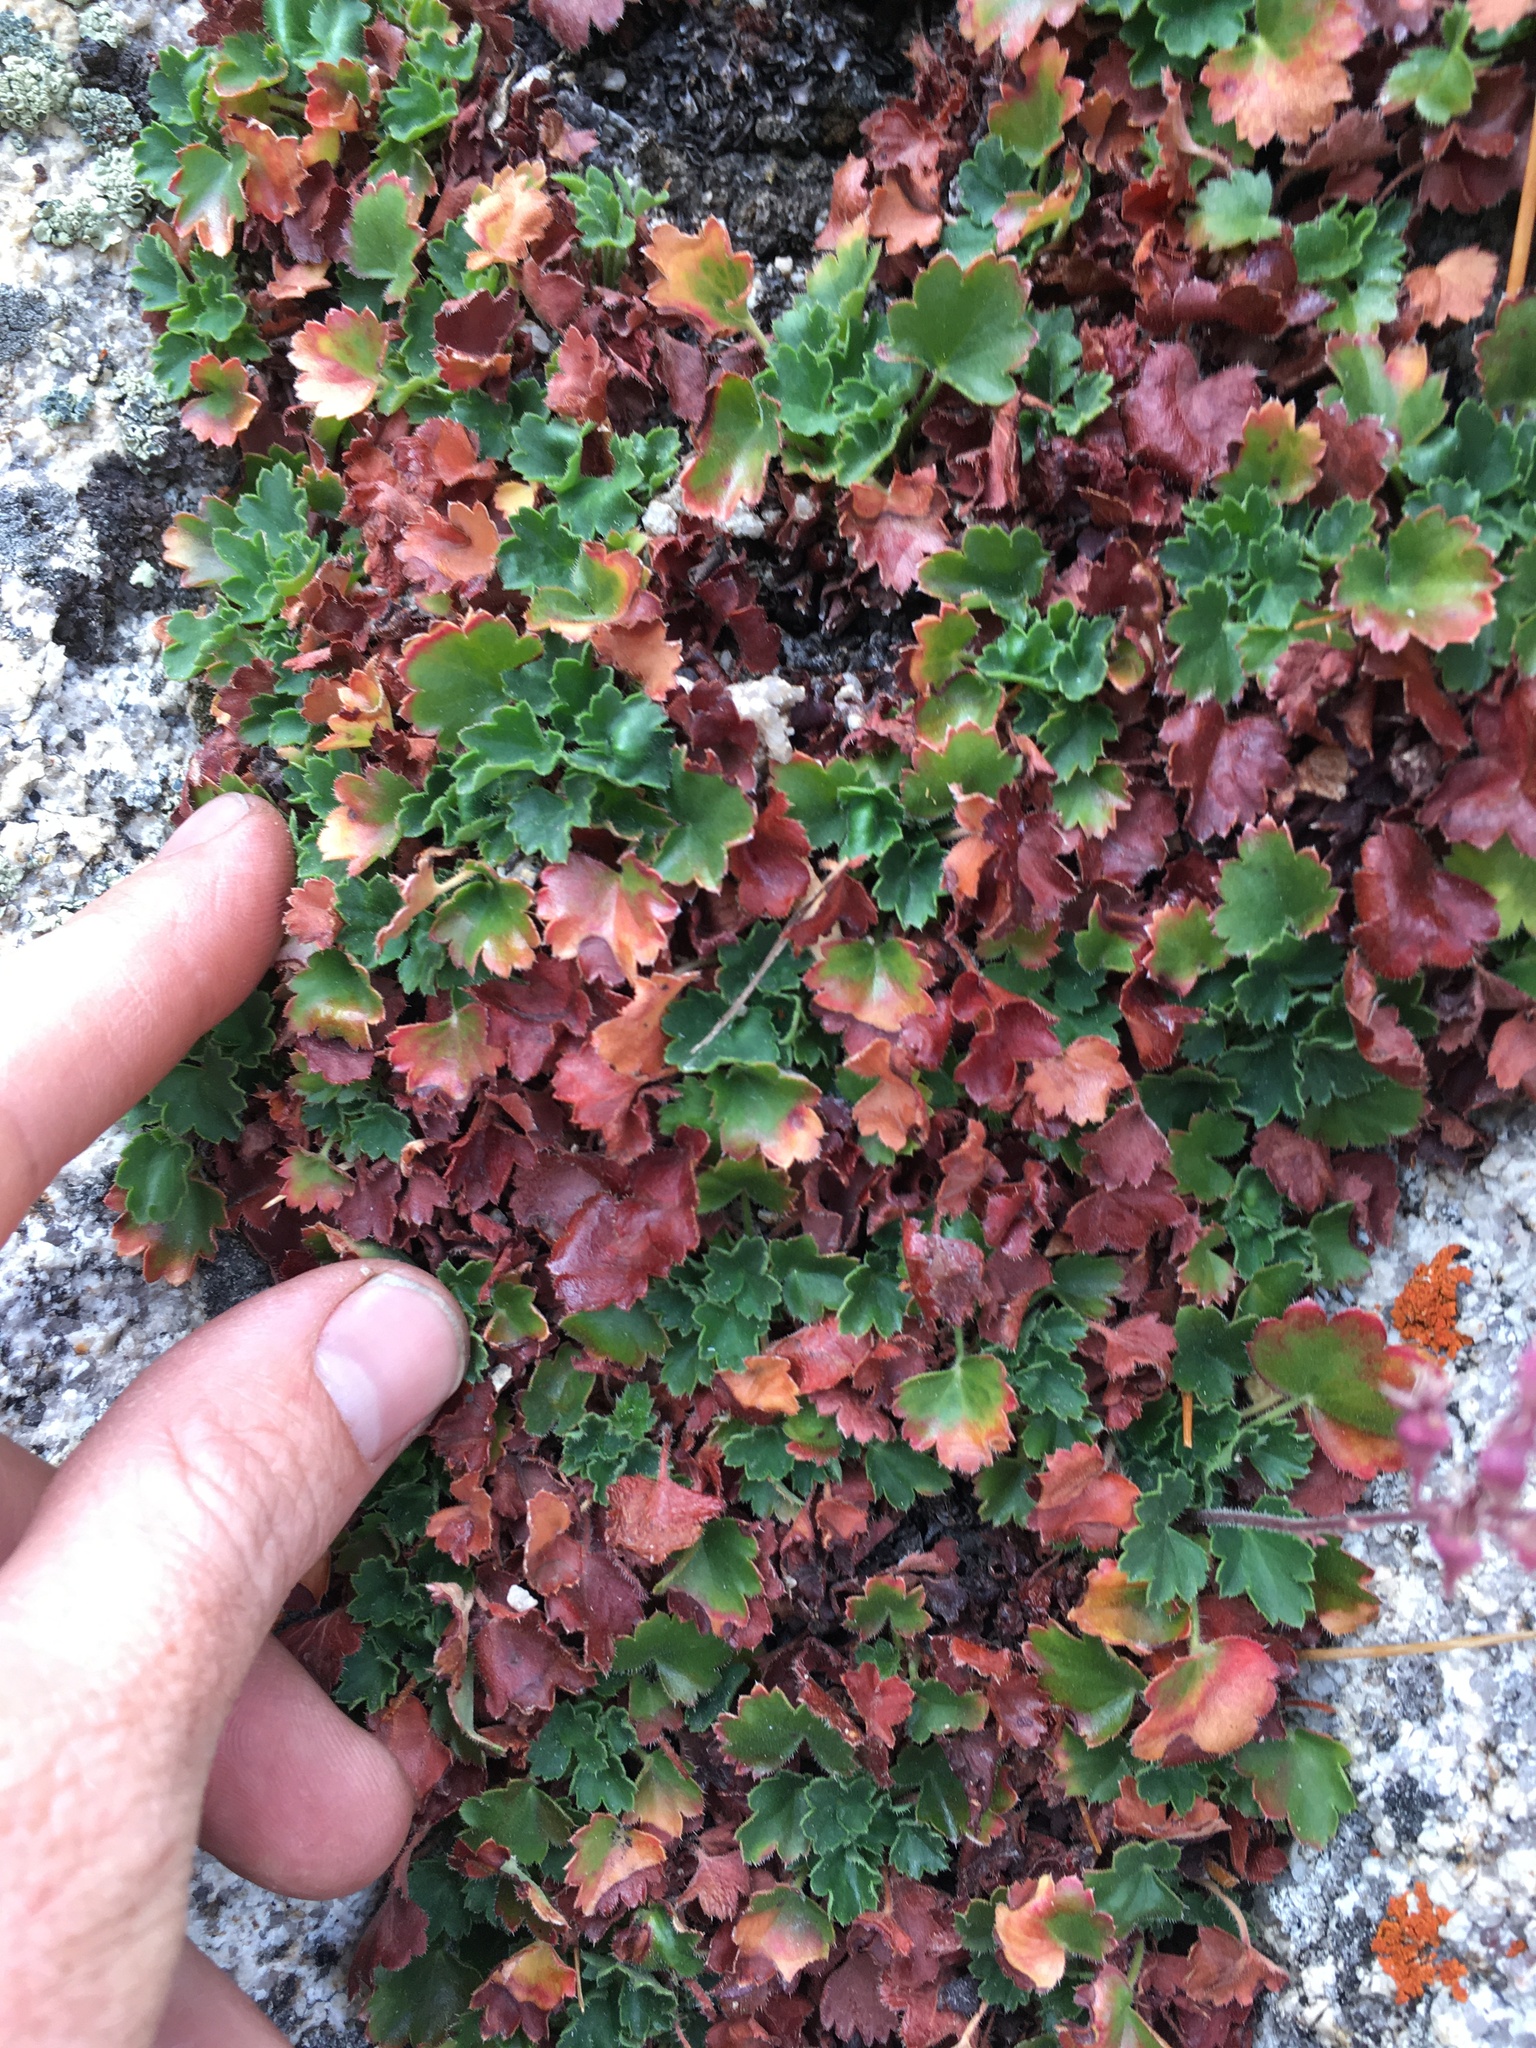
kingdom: Plantae
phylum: Tracheophyta
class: Magnoliopsida
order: Saxifragales
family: Saxifragaceae
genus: Heuchera
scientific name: Heuchera rubescens
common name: Jack-o'the-rocks
